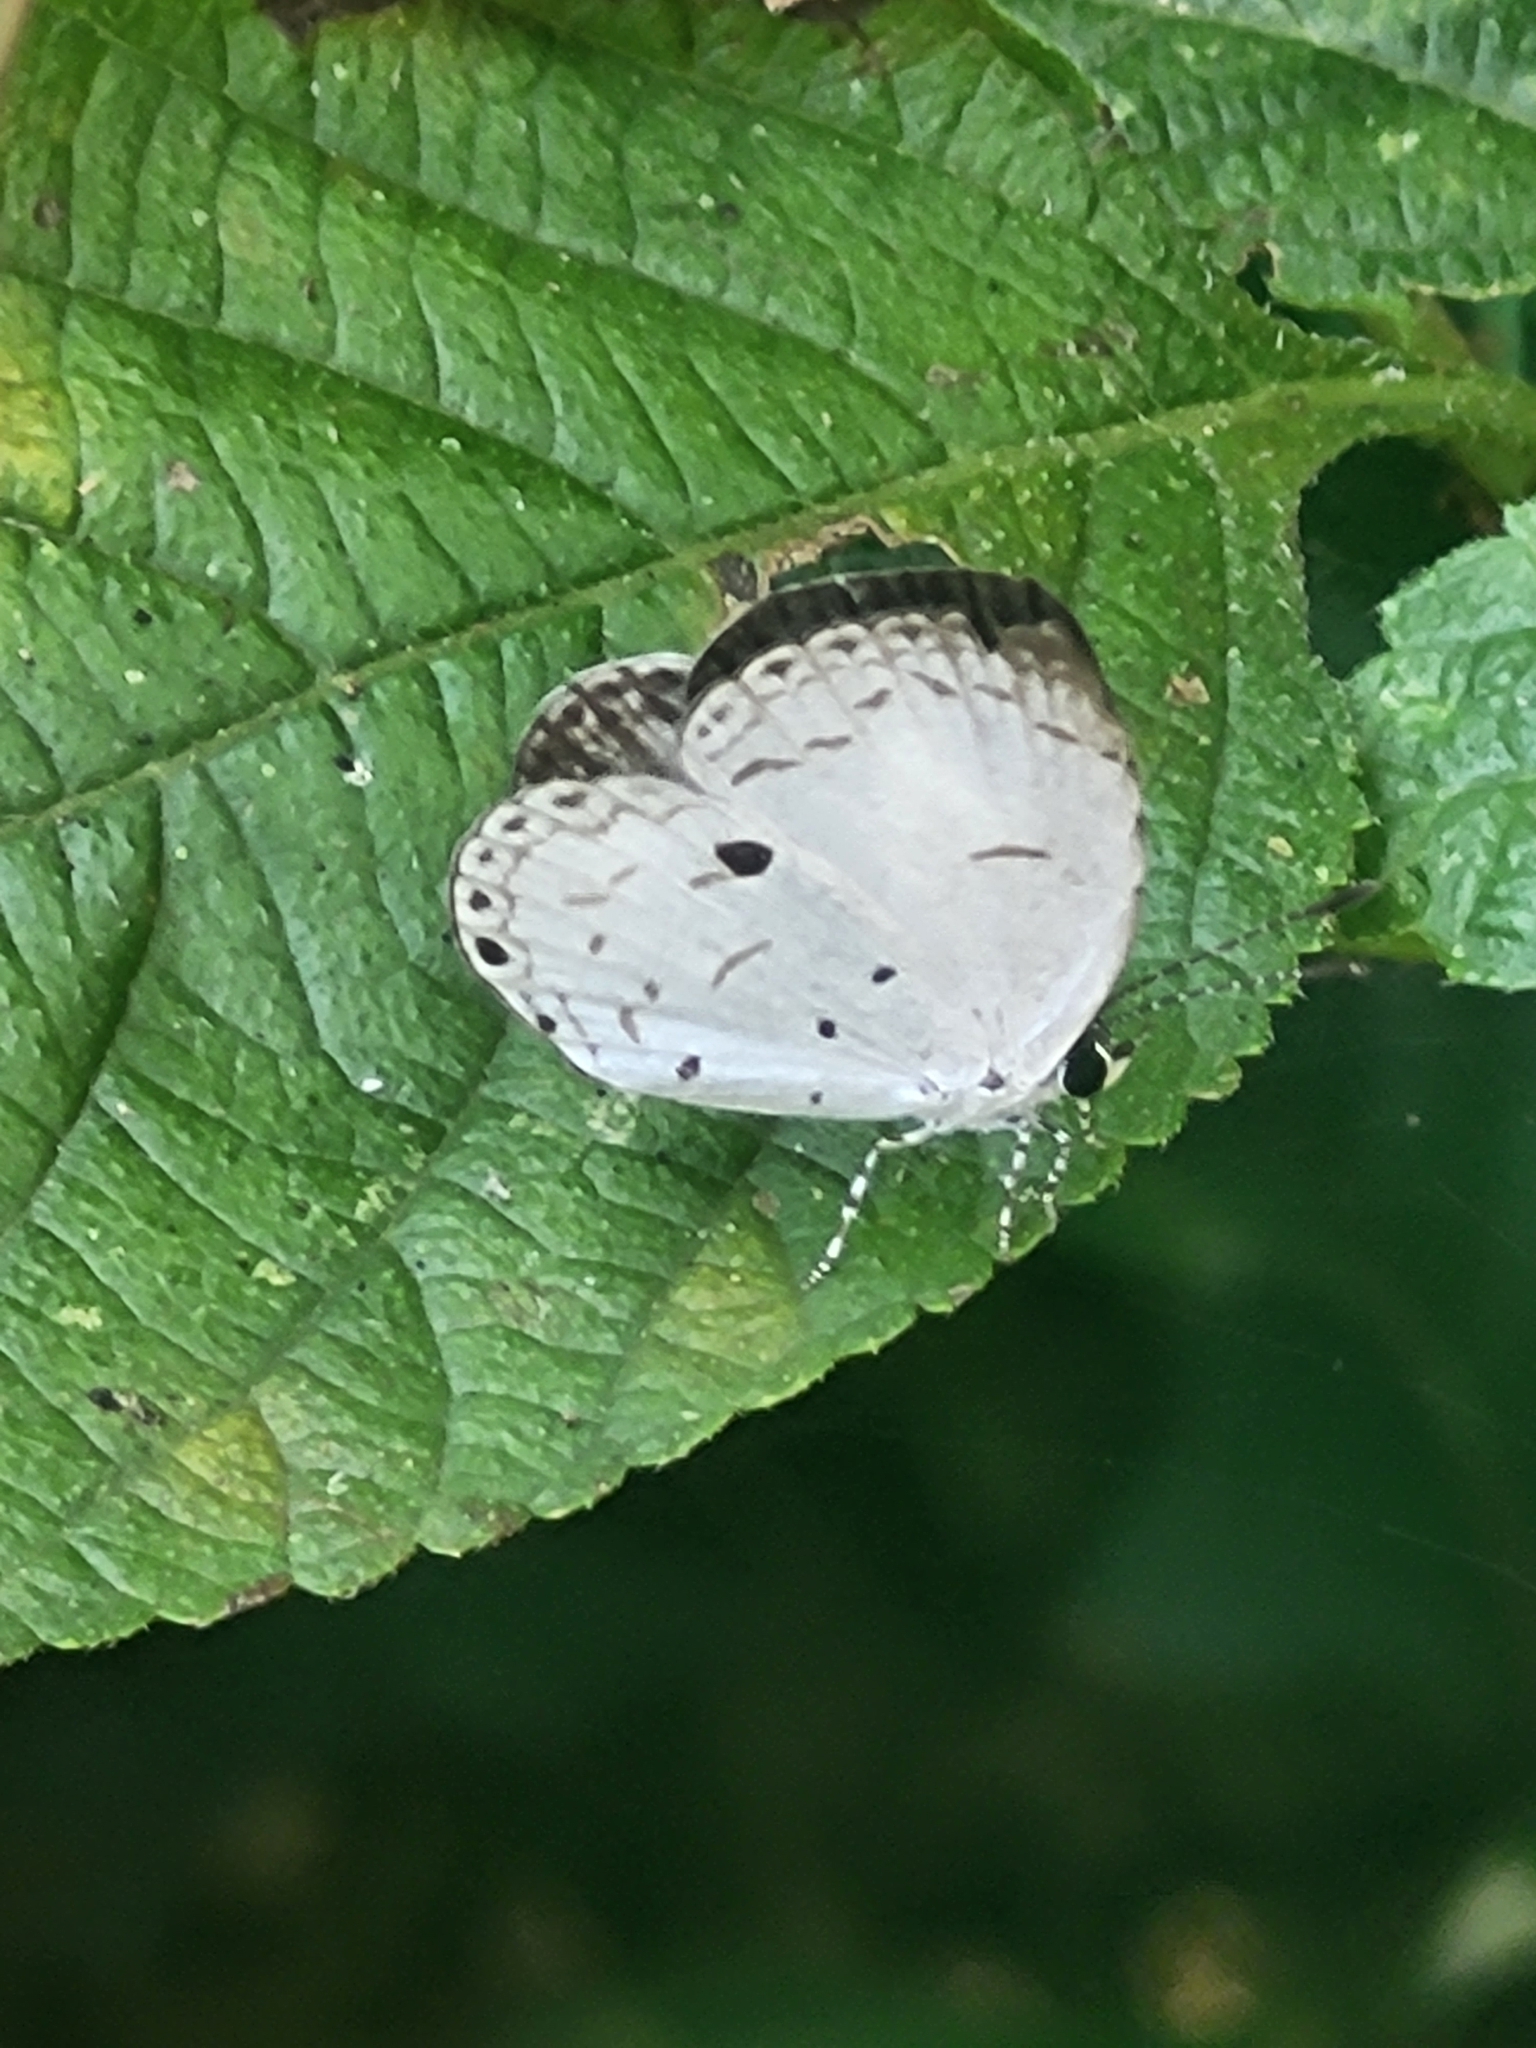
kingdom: Animalia
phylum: Arthropoda
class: Insecta
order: Lepidoptera
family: Lycaenidae
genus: Neopithecops
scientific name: Neopithecops zalmora
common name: Quaker
